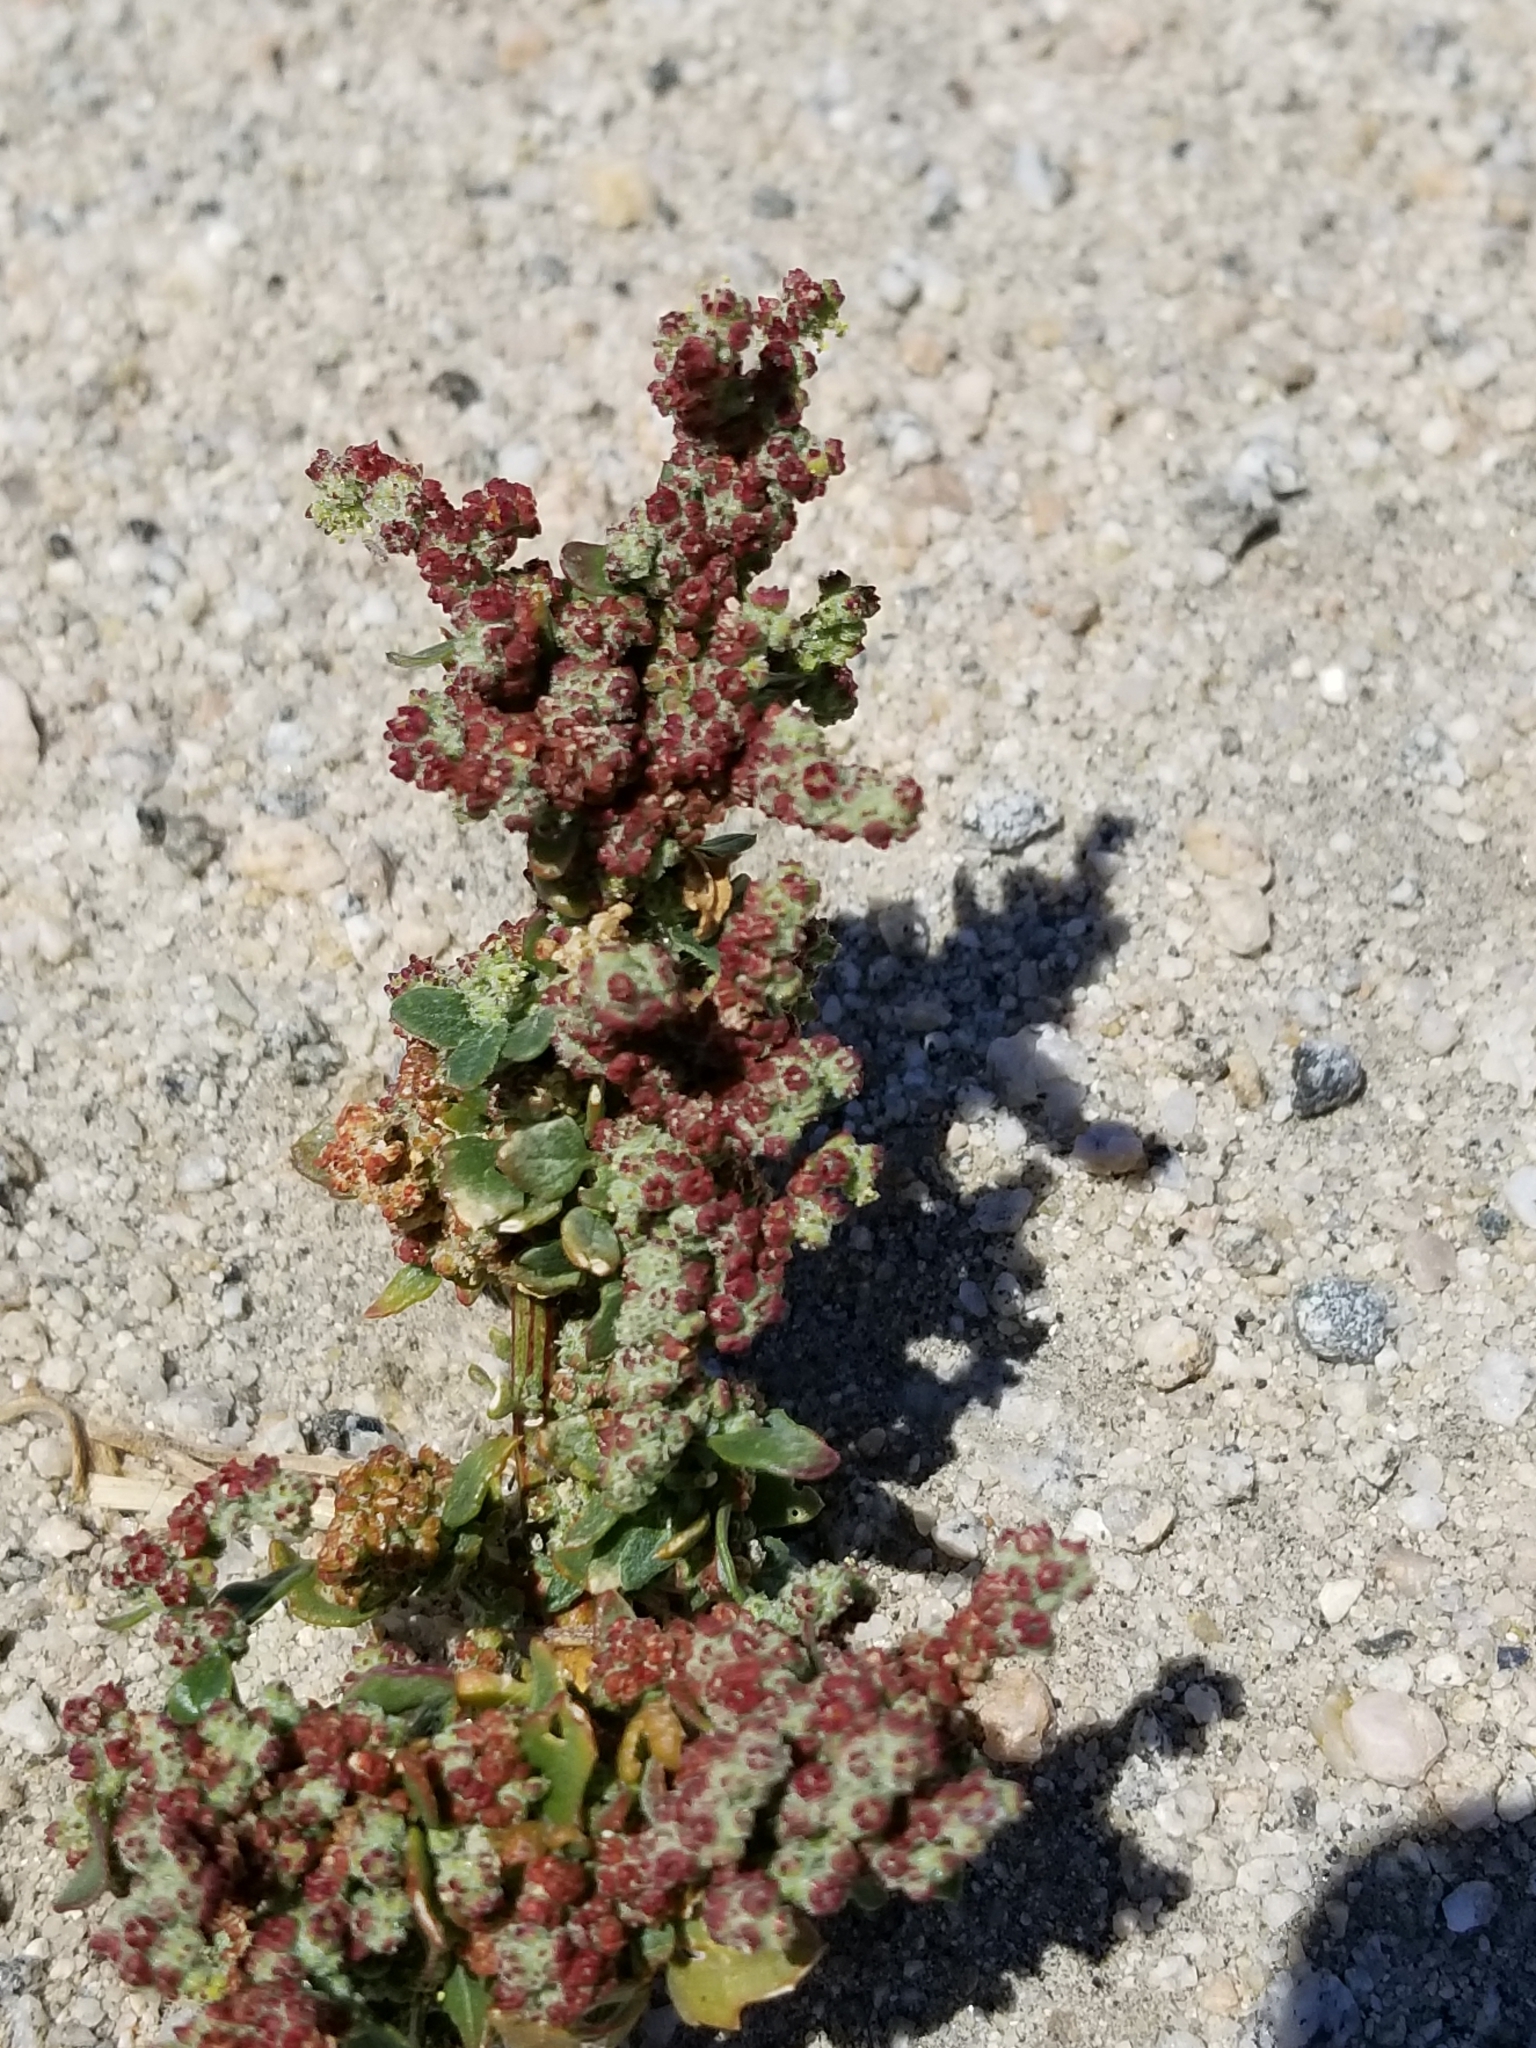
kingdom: Plantae
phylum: Tracheophyta
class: Magnoliopsida
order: Caryophyllales
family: Amaranthaceae
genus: Chenopodiastrum
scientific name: Chenopodiastrum murale
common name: Sowbane
